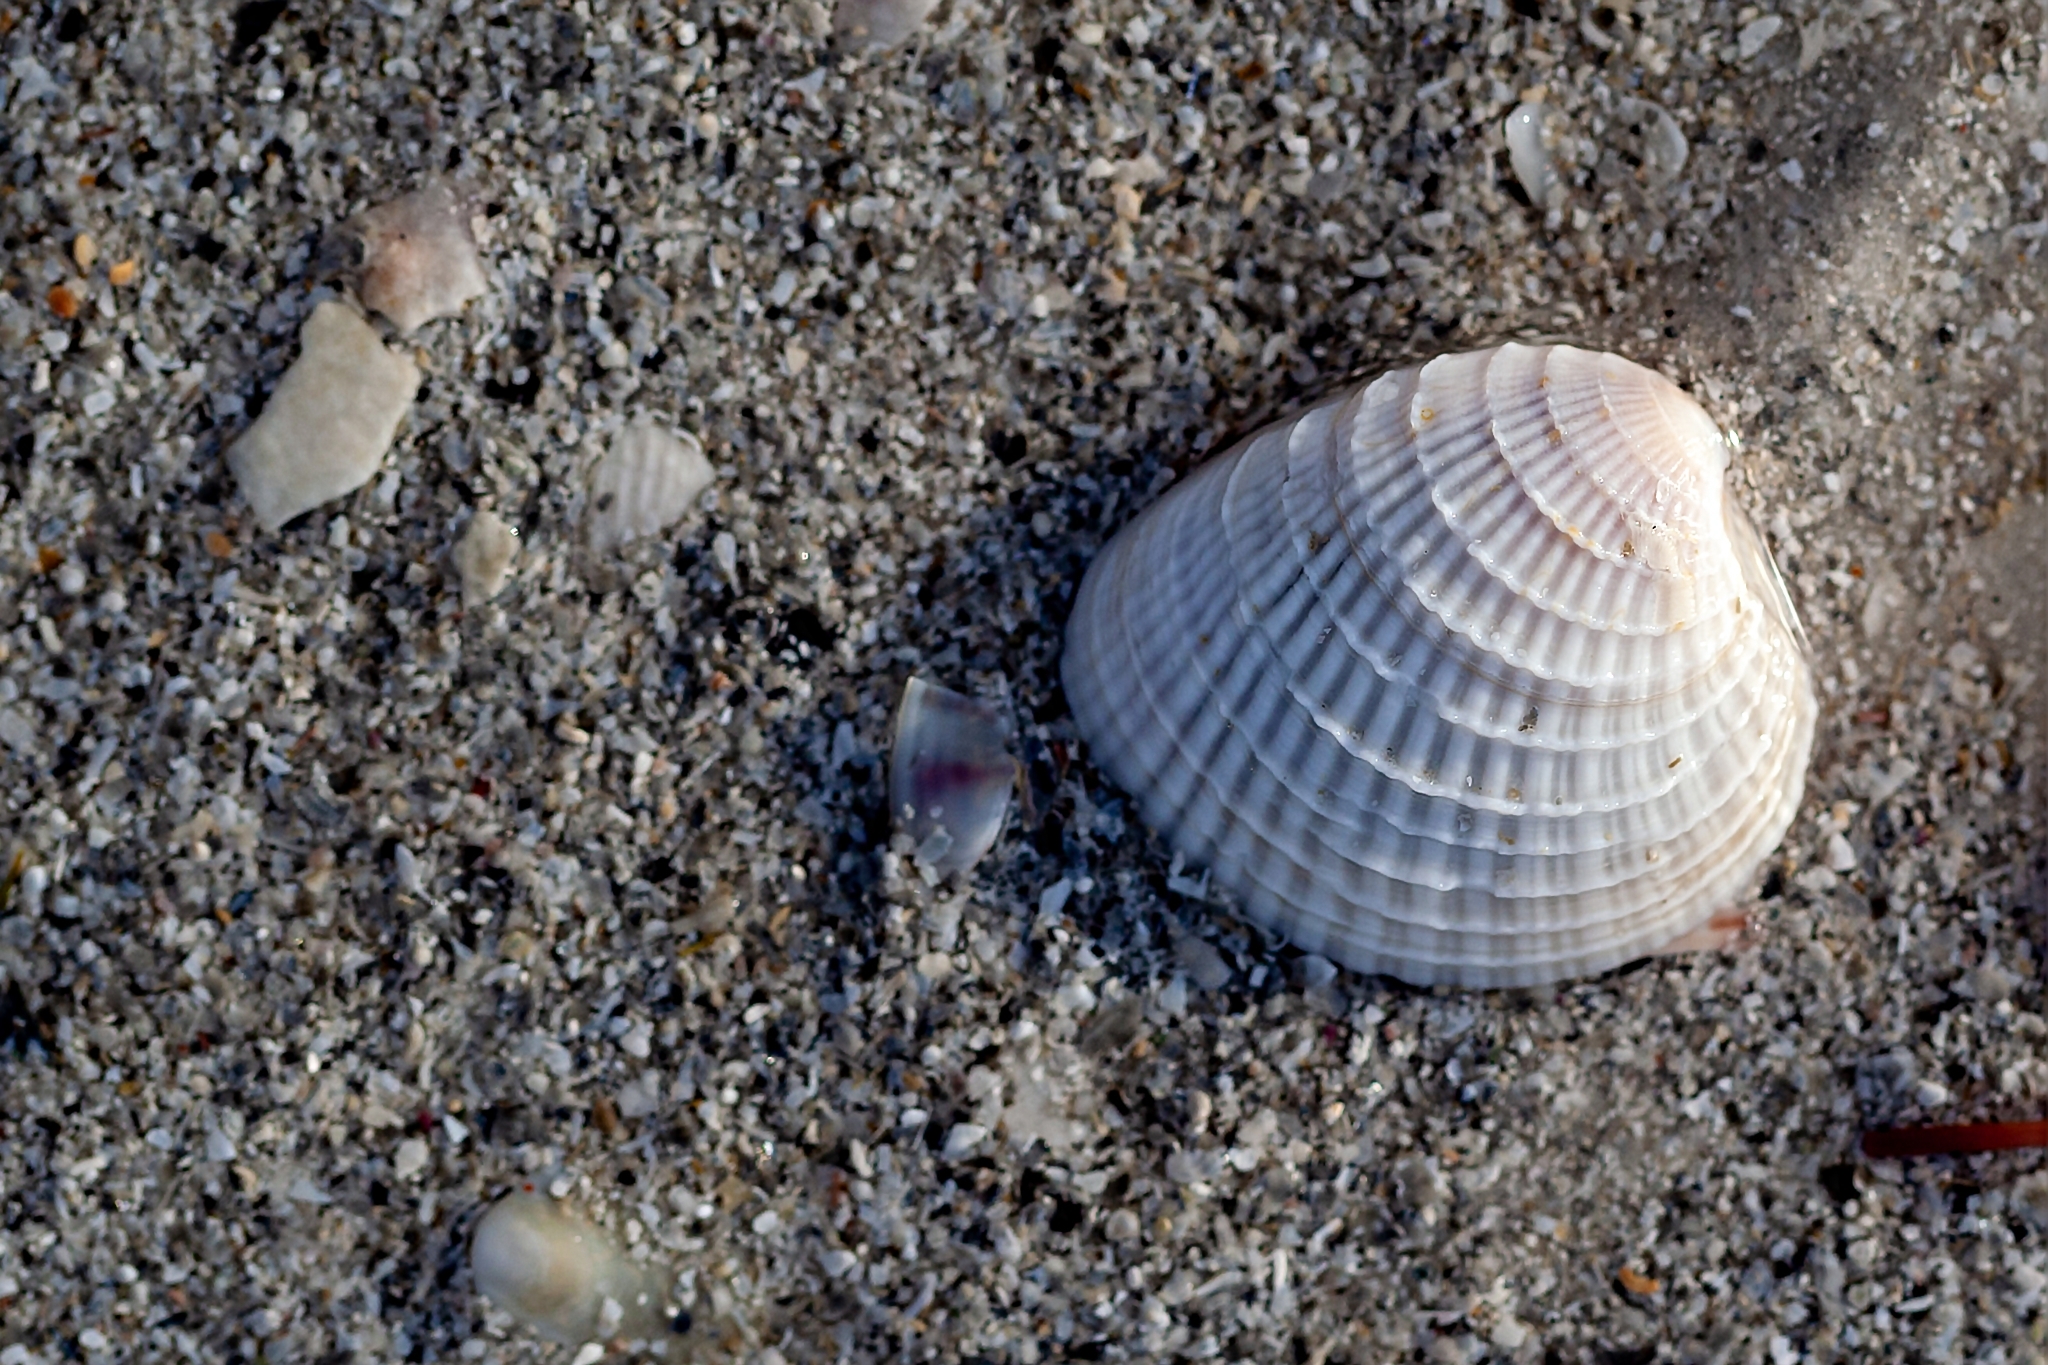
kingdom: Animalia
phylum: Mollusca
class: Bivalvia
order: Venerida
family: Veneridae
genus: Chione
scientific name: Chione elevata
